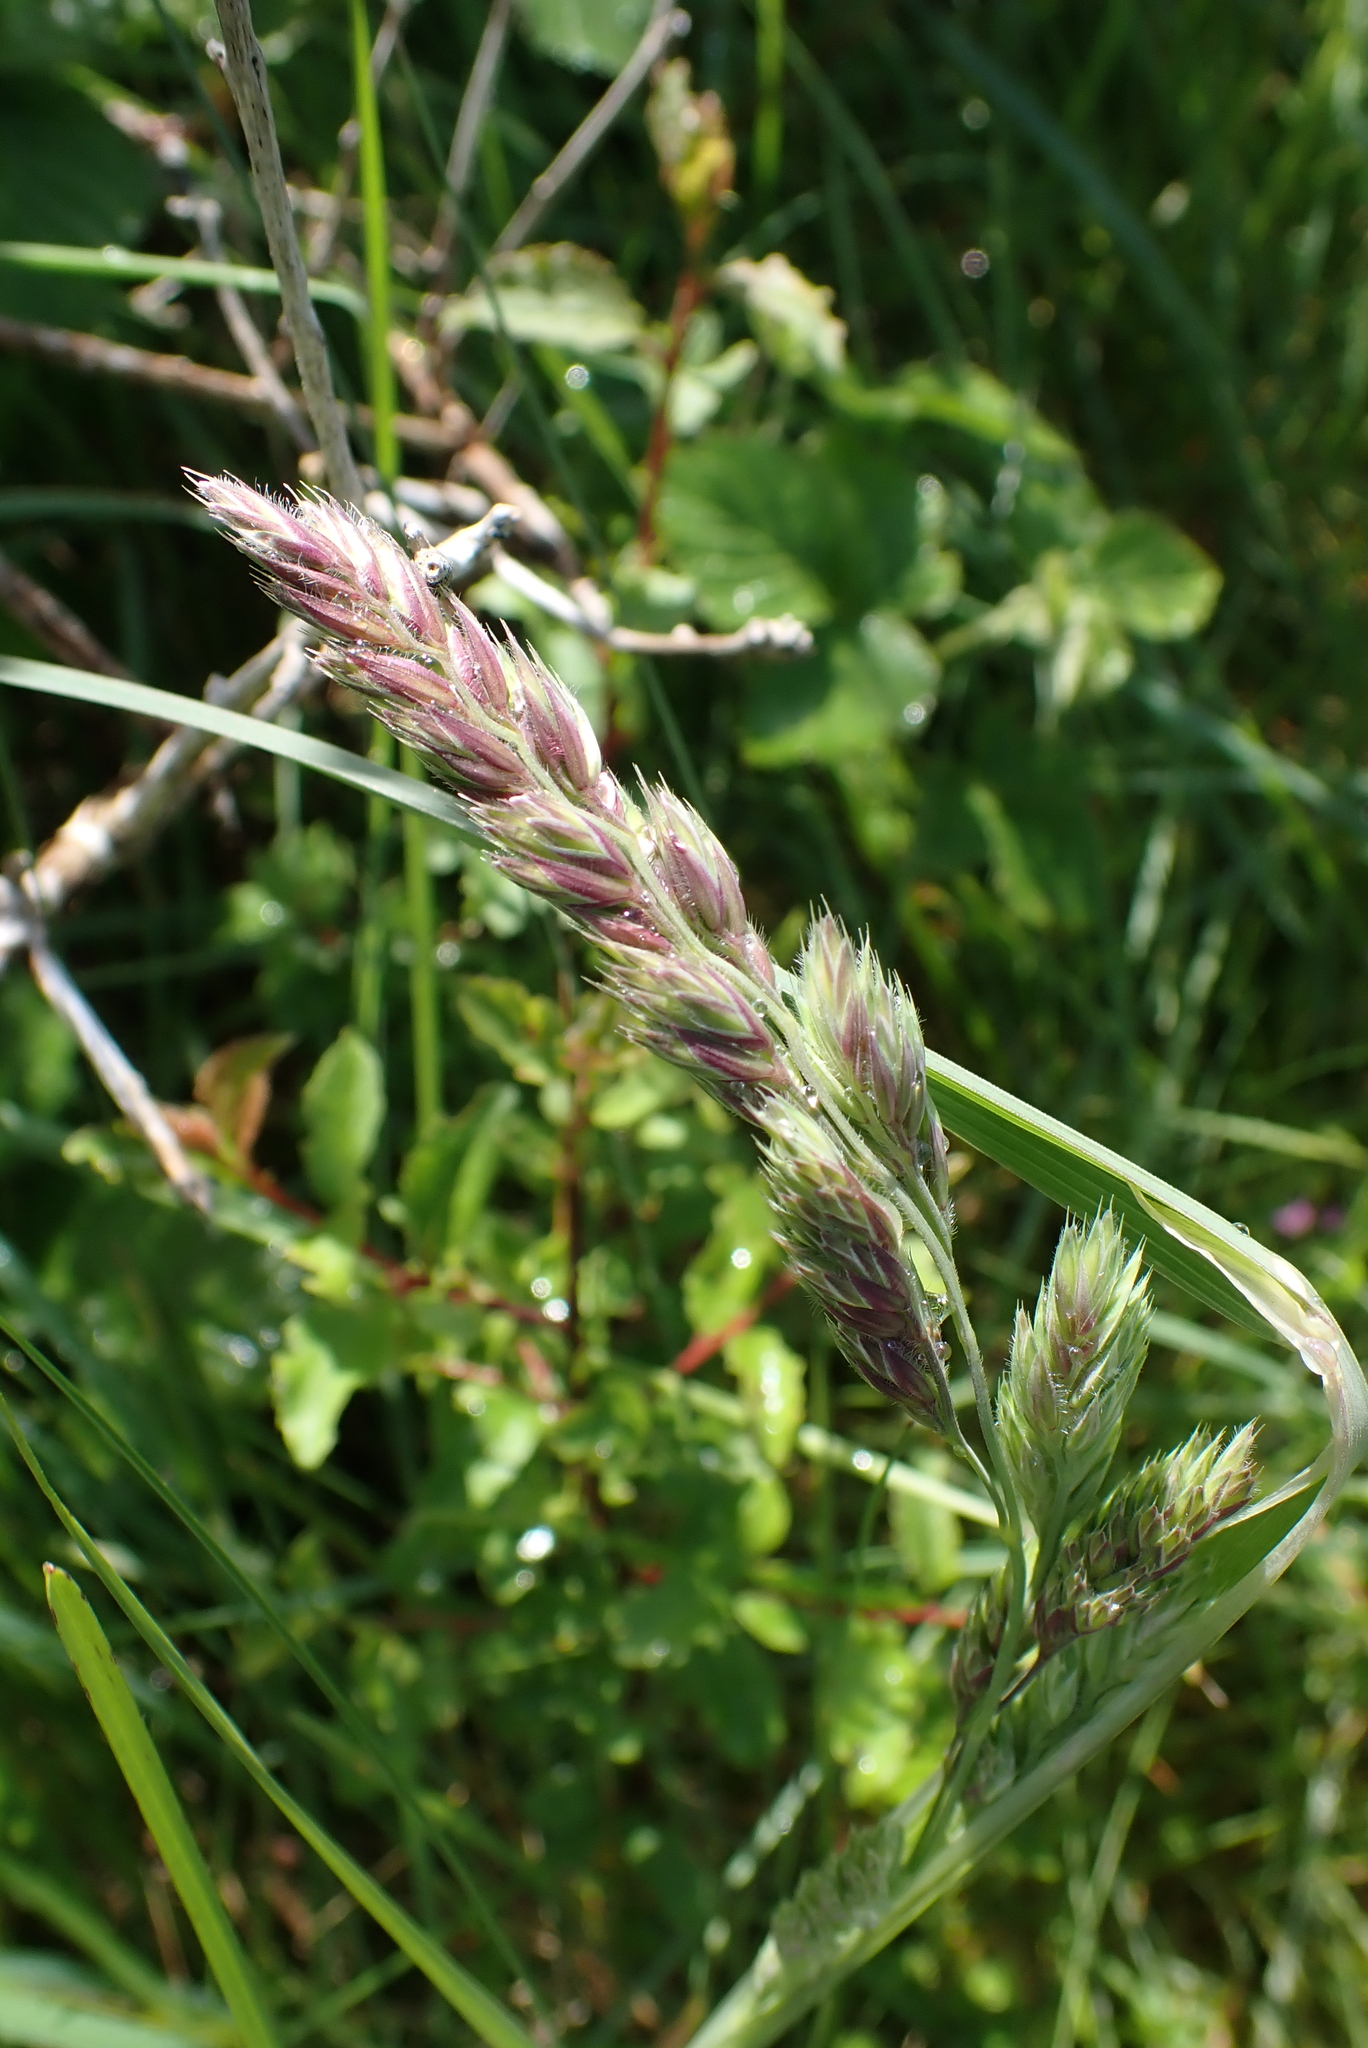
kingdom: Plantae
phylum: Tracheophyta
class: Liliopsida
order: Poales
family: Poaceae
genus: Dactylis
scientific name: Dactylis glomerata
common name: Orchardgrass
